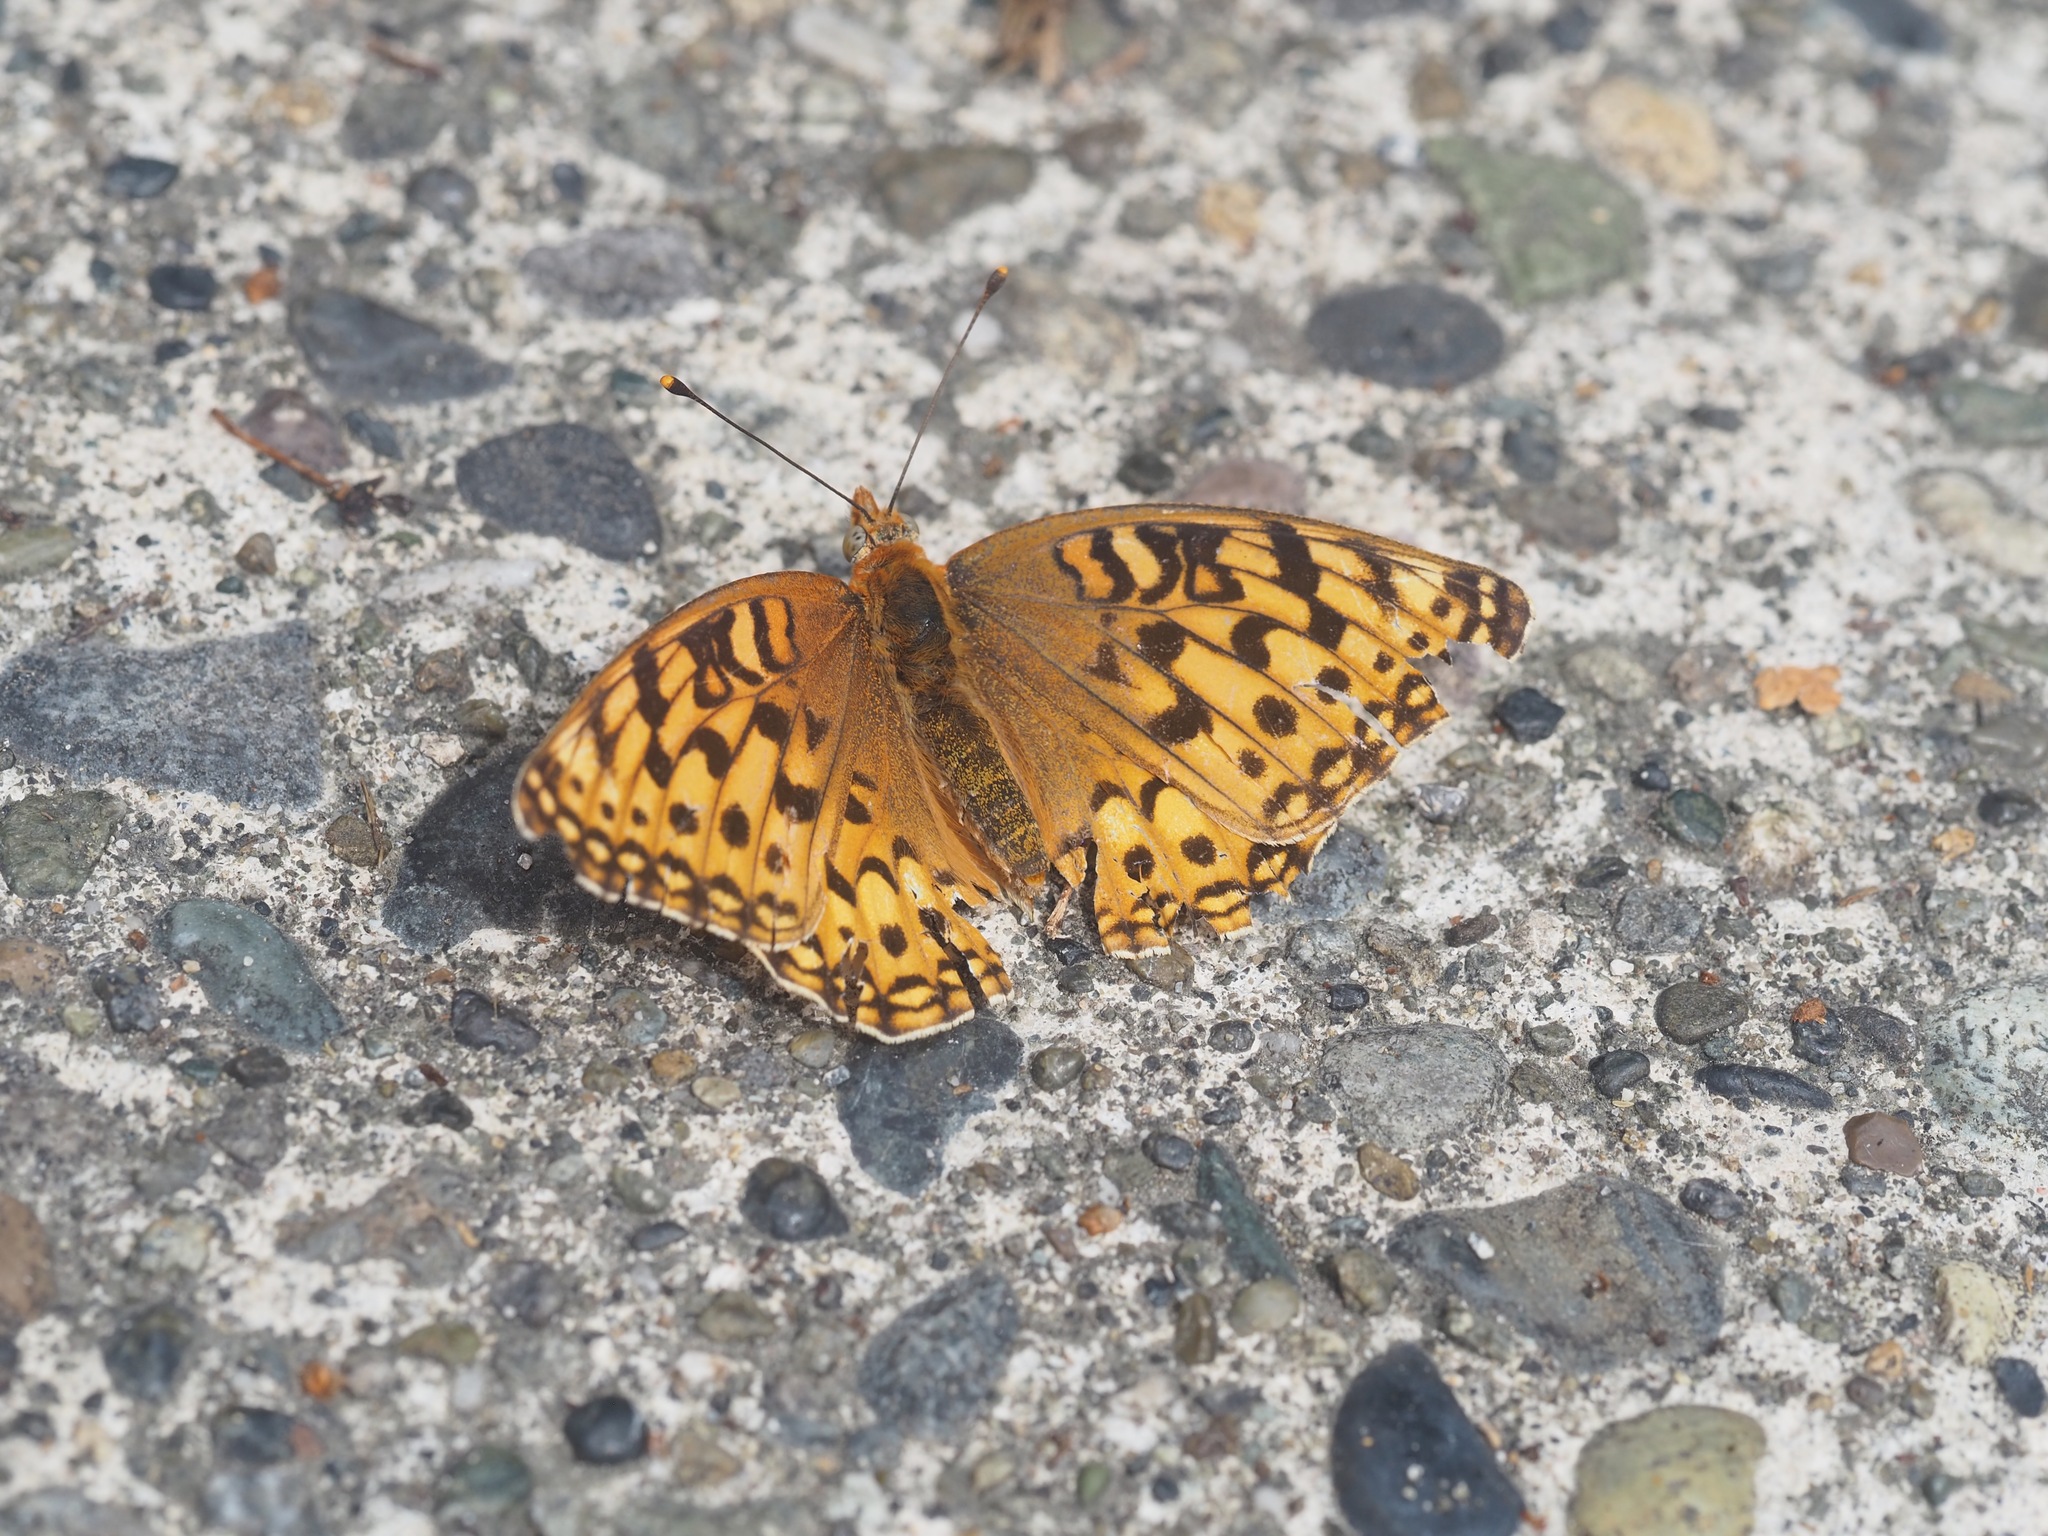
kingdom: Animalia
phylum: Arthropoda
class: Insecta
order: Lepidoptera
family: Nymphalidae
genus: Argynnis
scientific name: Argynnis coronis
